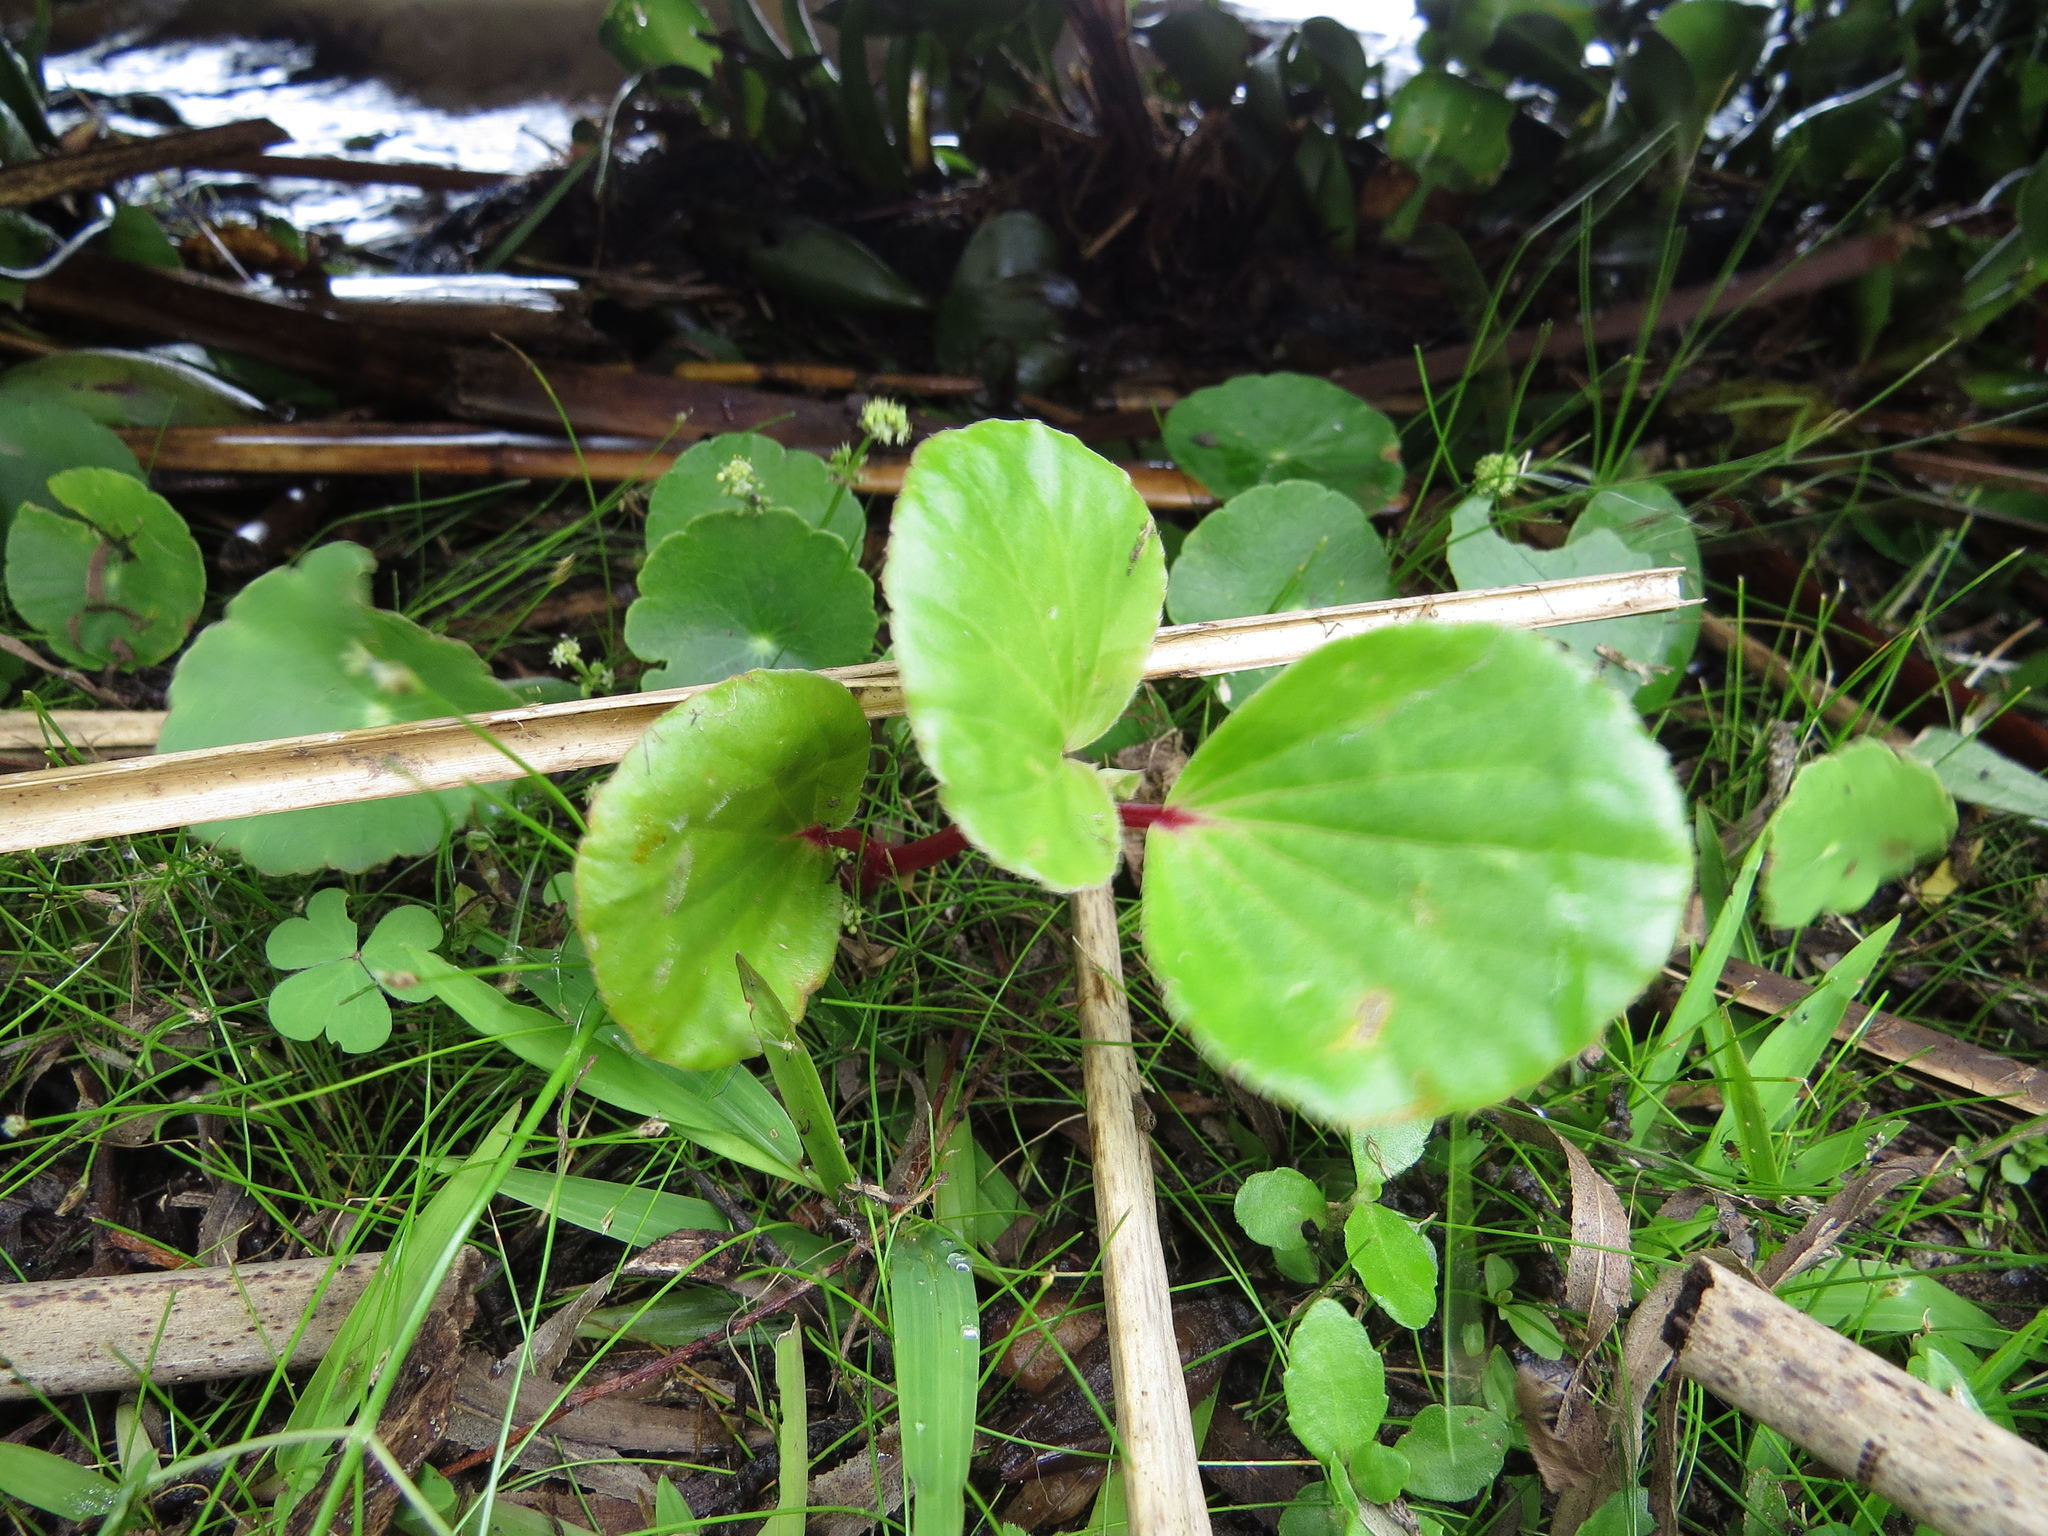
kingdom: Plantae
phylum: Tracheophyta
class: Magnoliopsida
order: Cucurbitales
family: Begoniaceae
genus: Begonia
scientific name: Begonia cucullata
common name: Clubbed begonia
